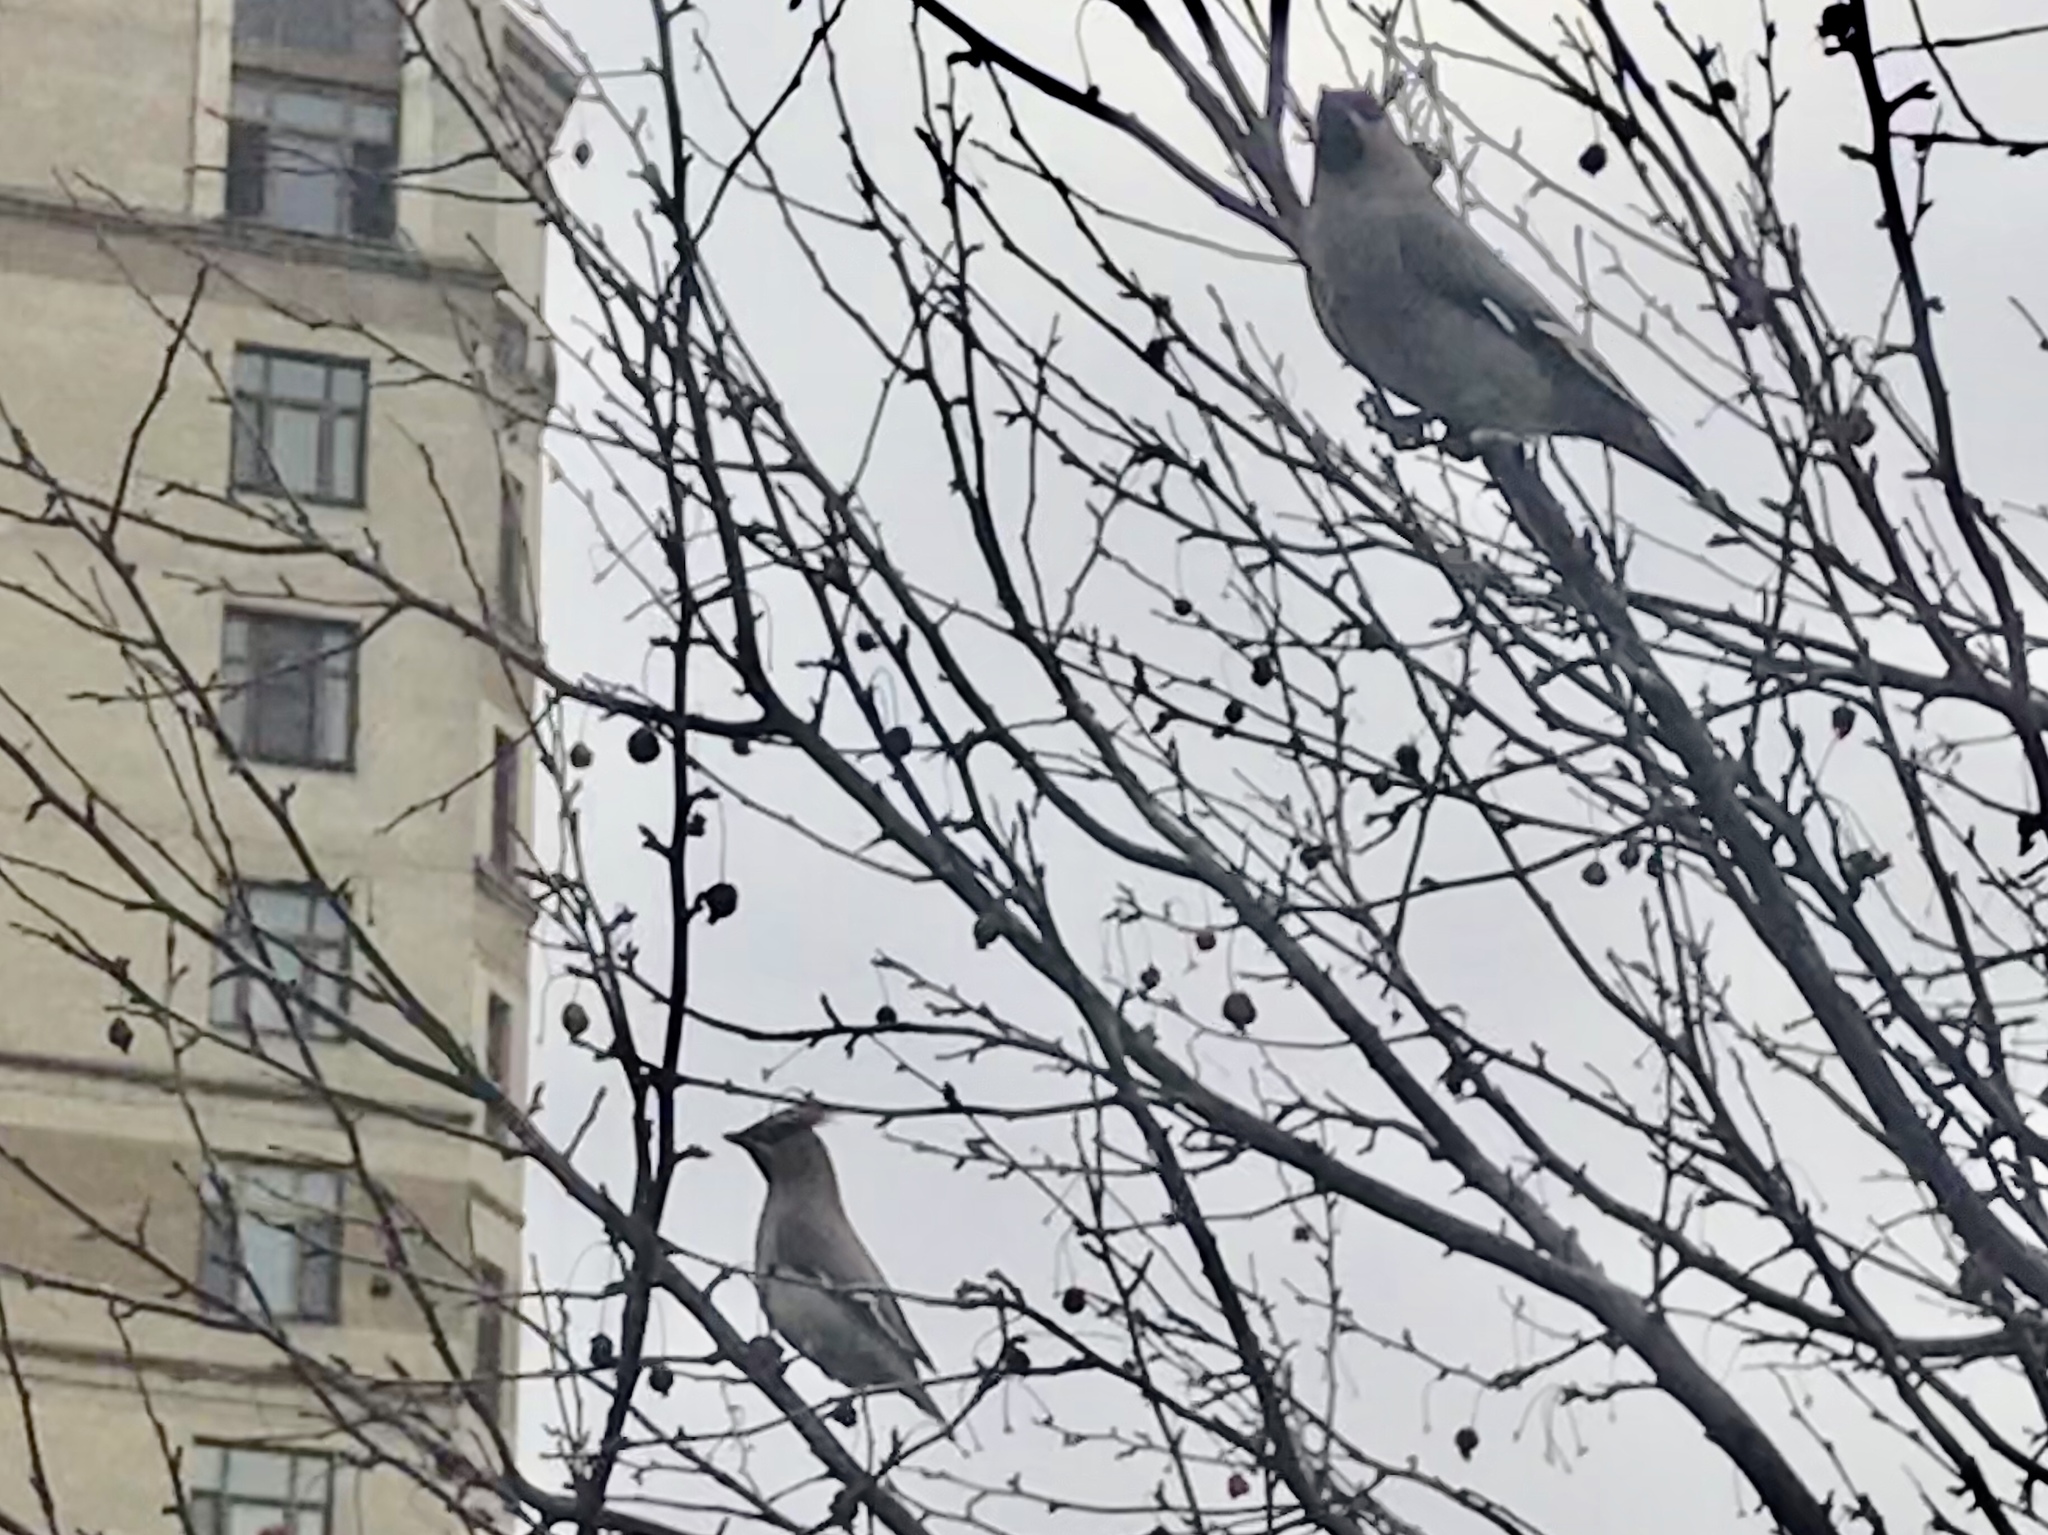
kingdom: Animalia
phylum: Chordata
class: Aves
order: Passeriformes
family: Bombycillidae
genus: Bombycilla
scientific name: Bombycilla garrulus
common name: Bohemian waxwing
